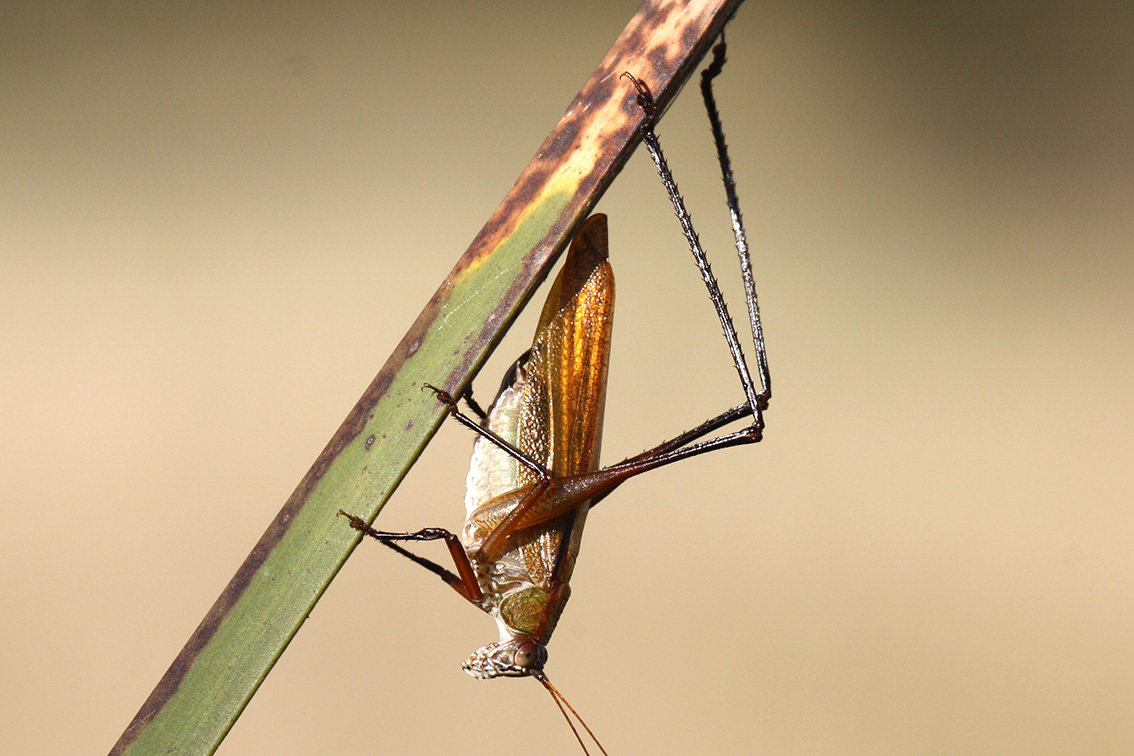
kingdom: Animalia
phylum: Arthropoda
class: Insecta
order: Orthoptera
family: Tettigoniidae
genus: Theudoria
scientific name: Theudoria melanocnemis
